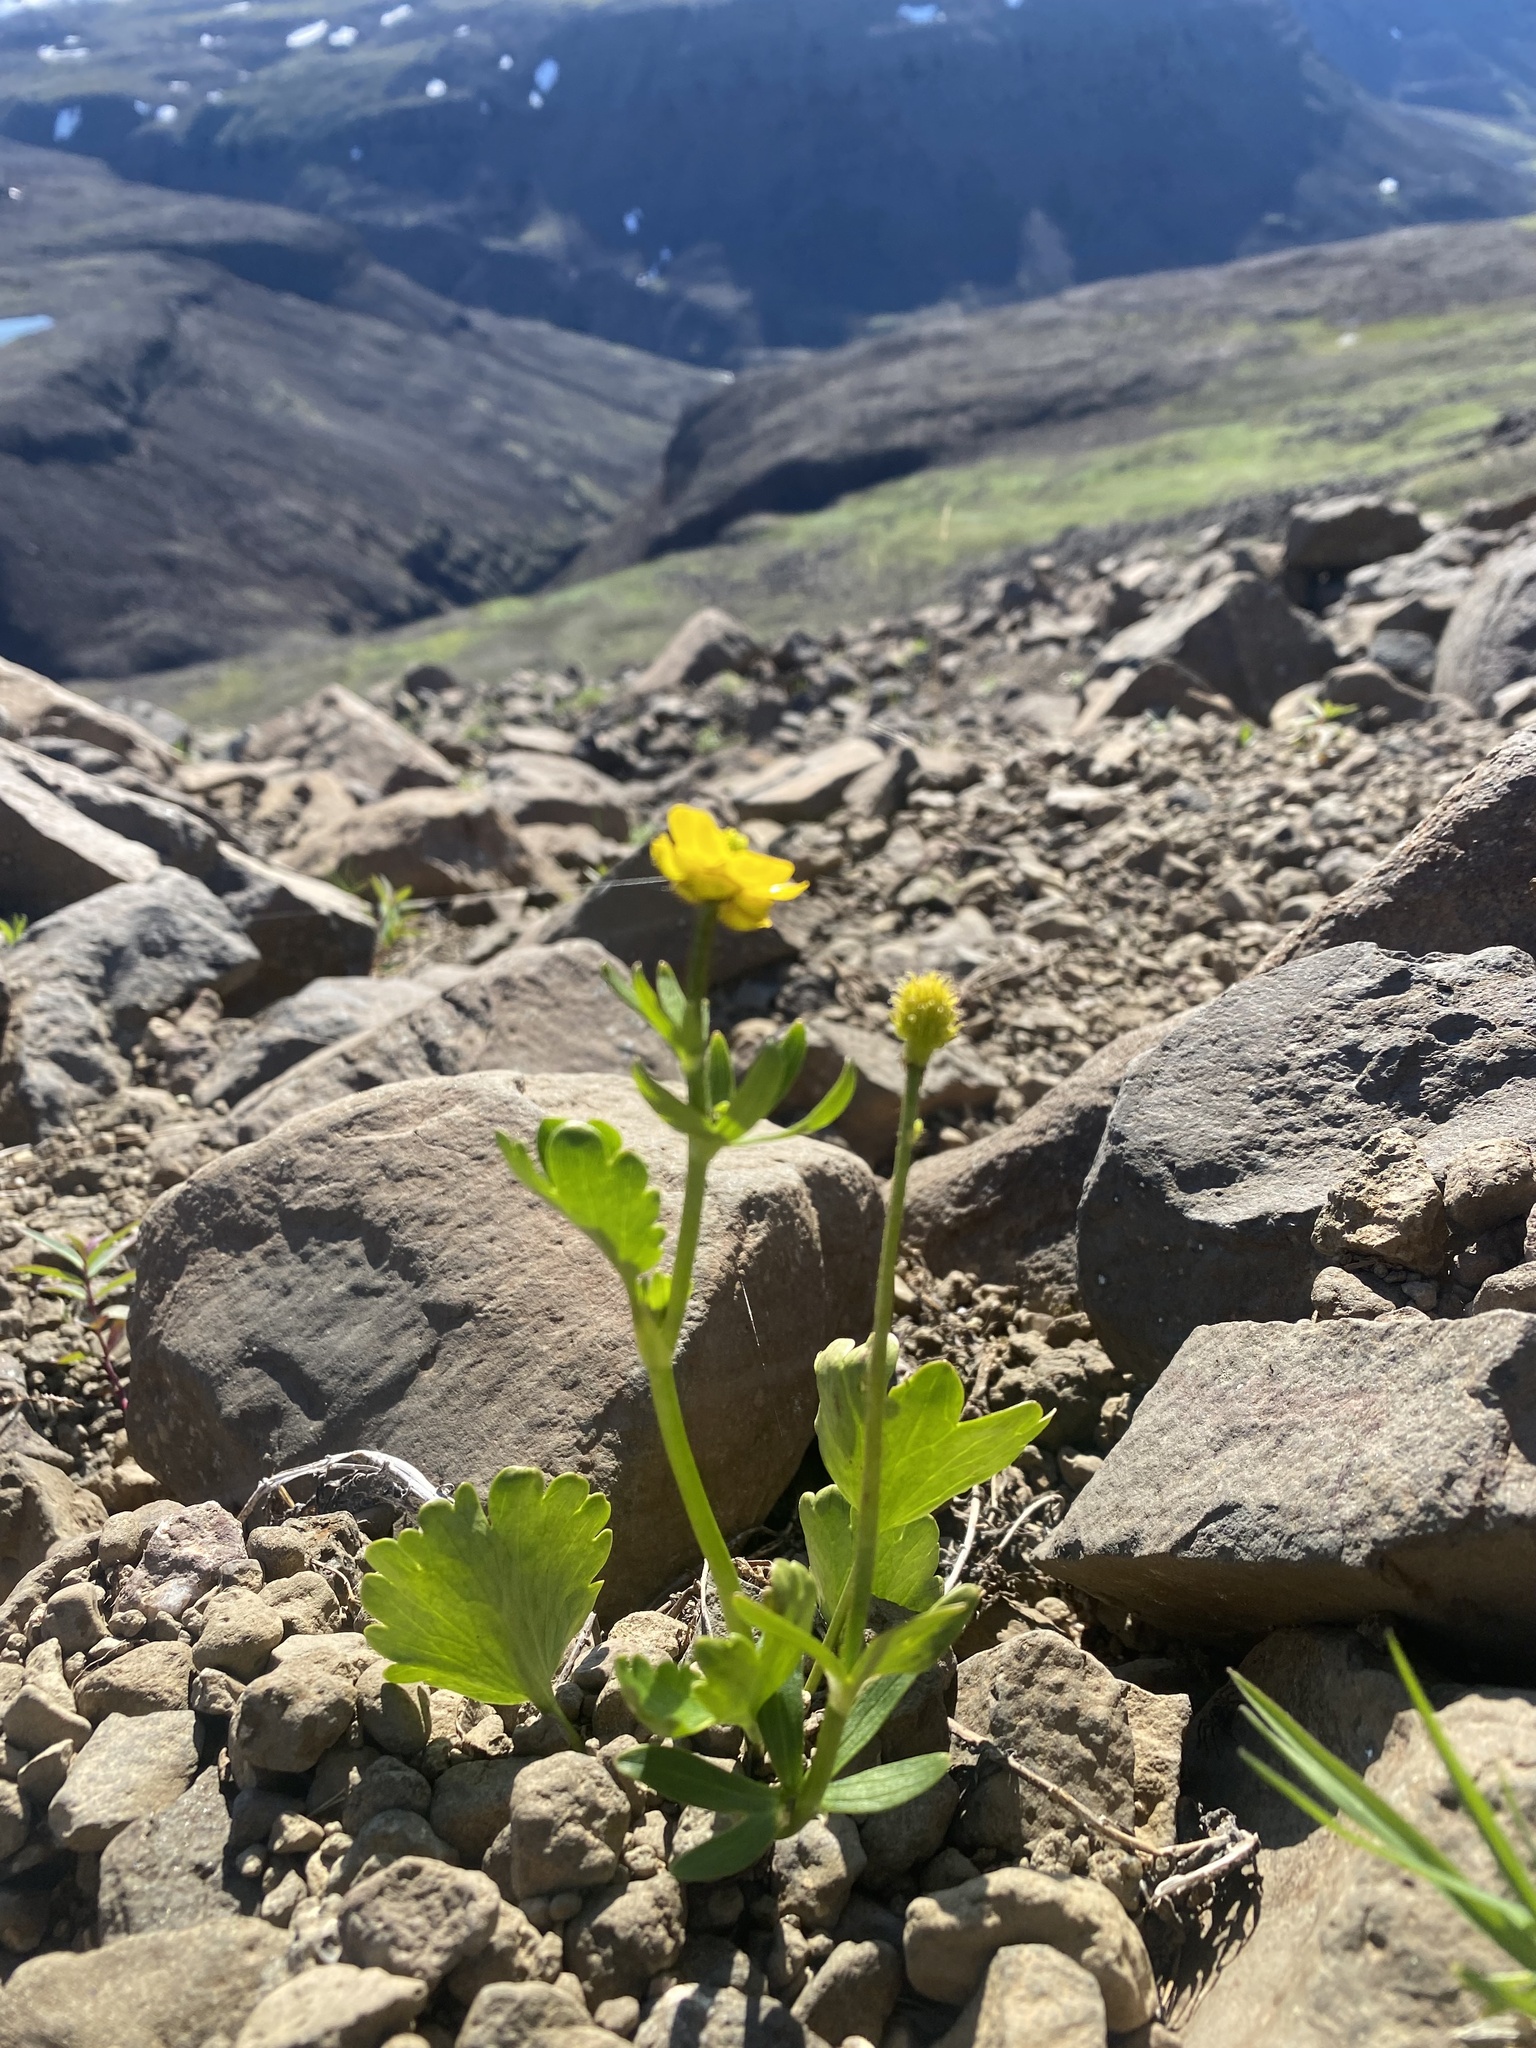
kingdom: Plantae
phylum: Tracheophyta
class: Magnoliopsida
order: Ranunculales
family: Ranunculaceae
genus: Ranunculus
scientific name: Ranunculus sulphureus
